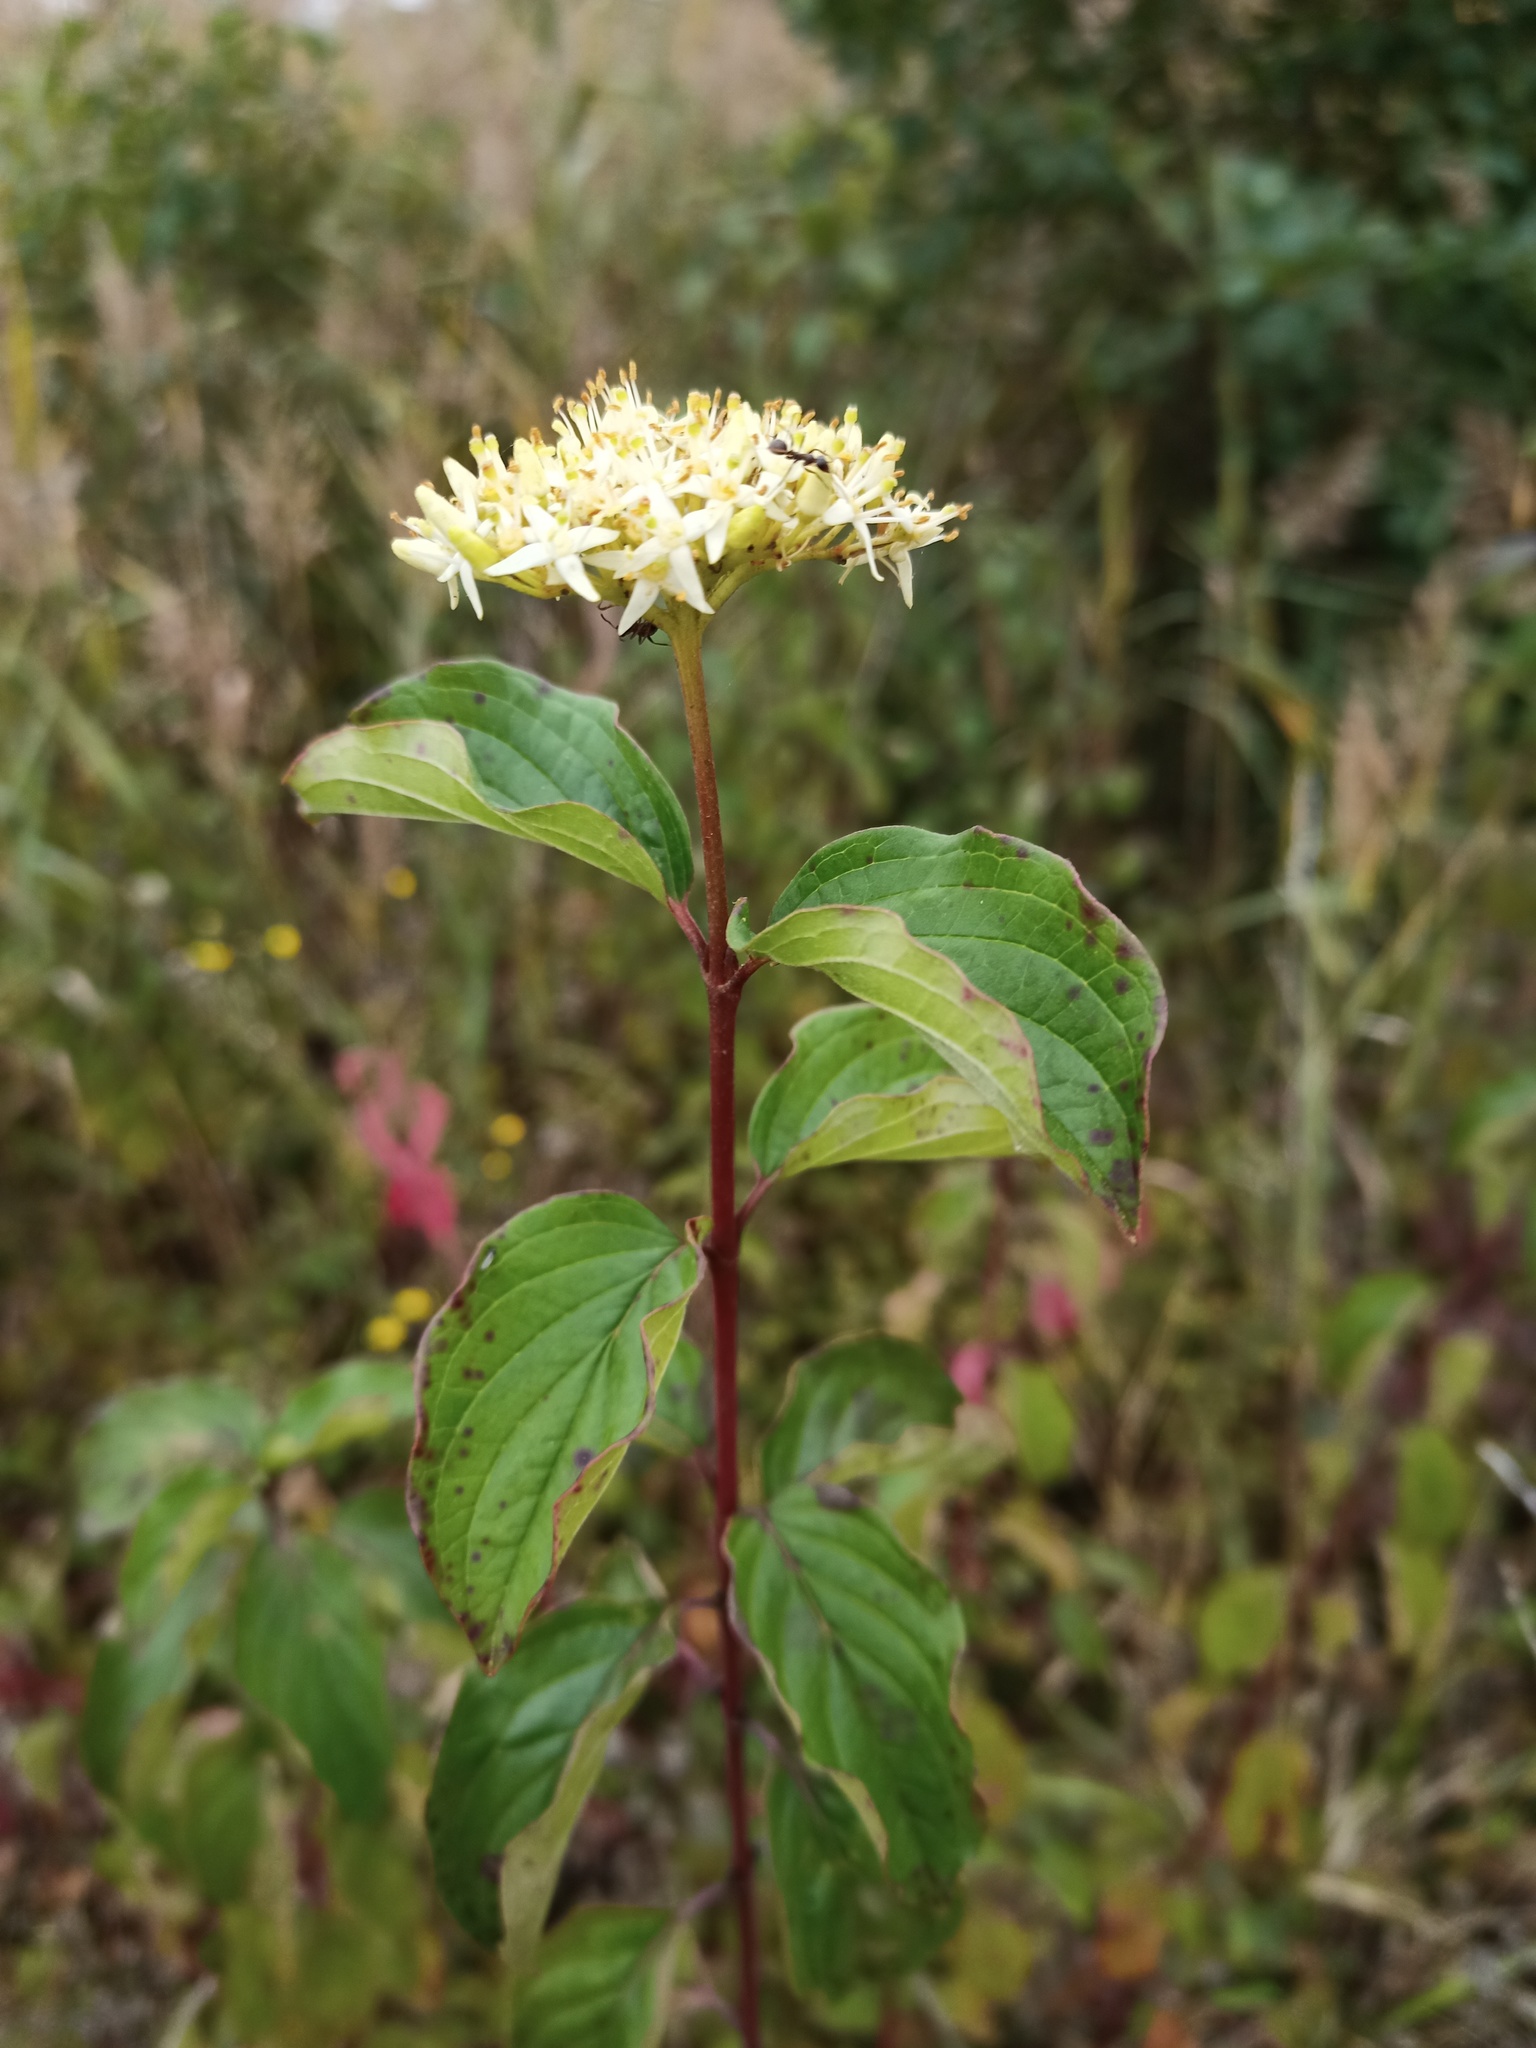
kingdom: Plantae
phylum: Tracheophyta
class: Magnoliopsida
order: Cornales
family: Cornaceae
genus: Cornus
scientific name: Cornus sanguinea
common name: Dogwood
